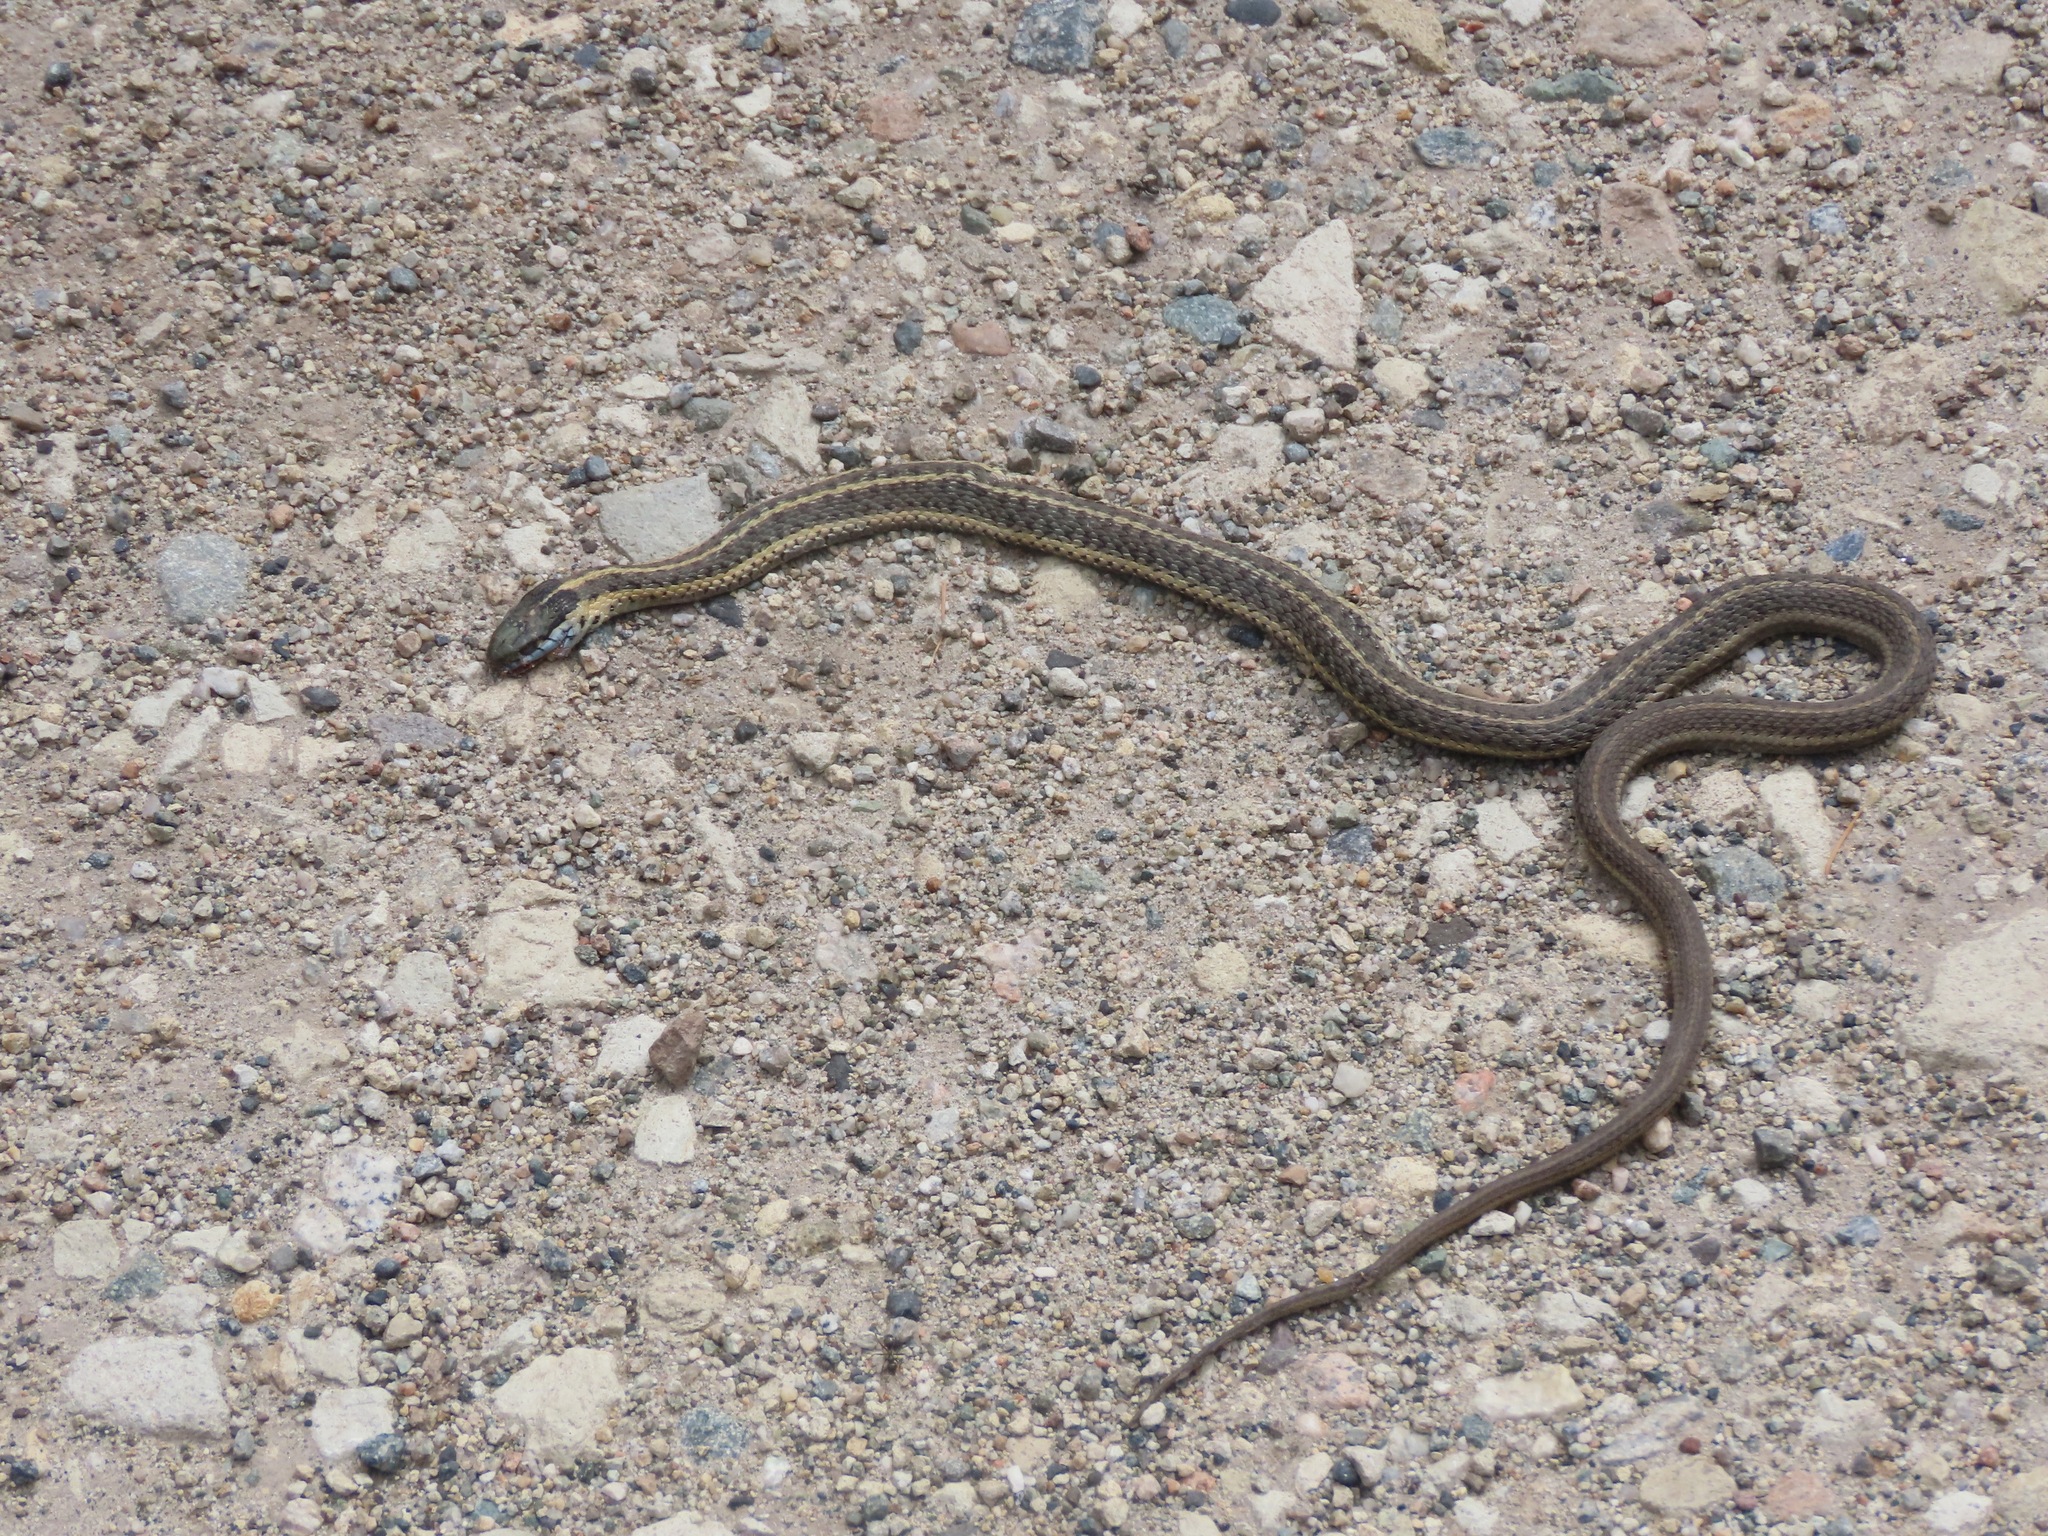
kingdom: Animalia
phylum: Chordata
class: Squamata
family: Colubridae
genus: Thamnophis
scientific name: Thamnophis elegans
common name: Western terrestrial garter snake
